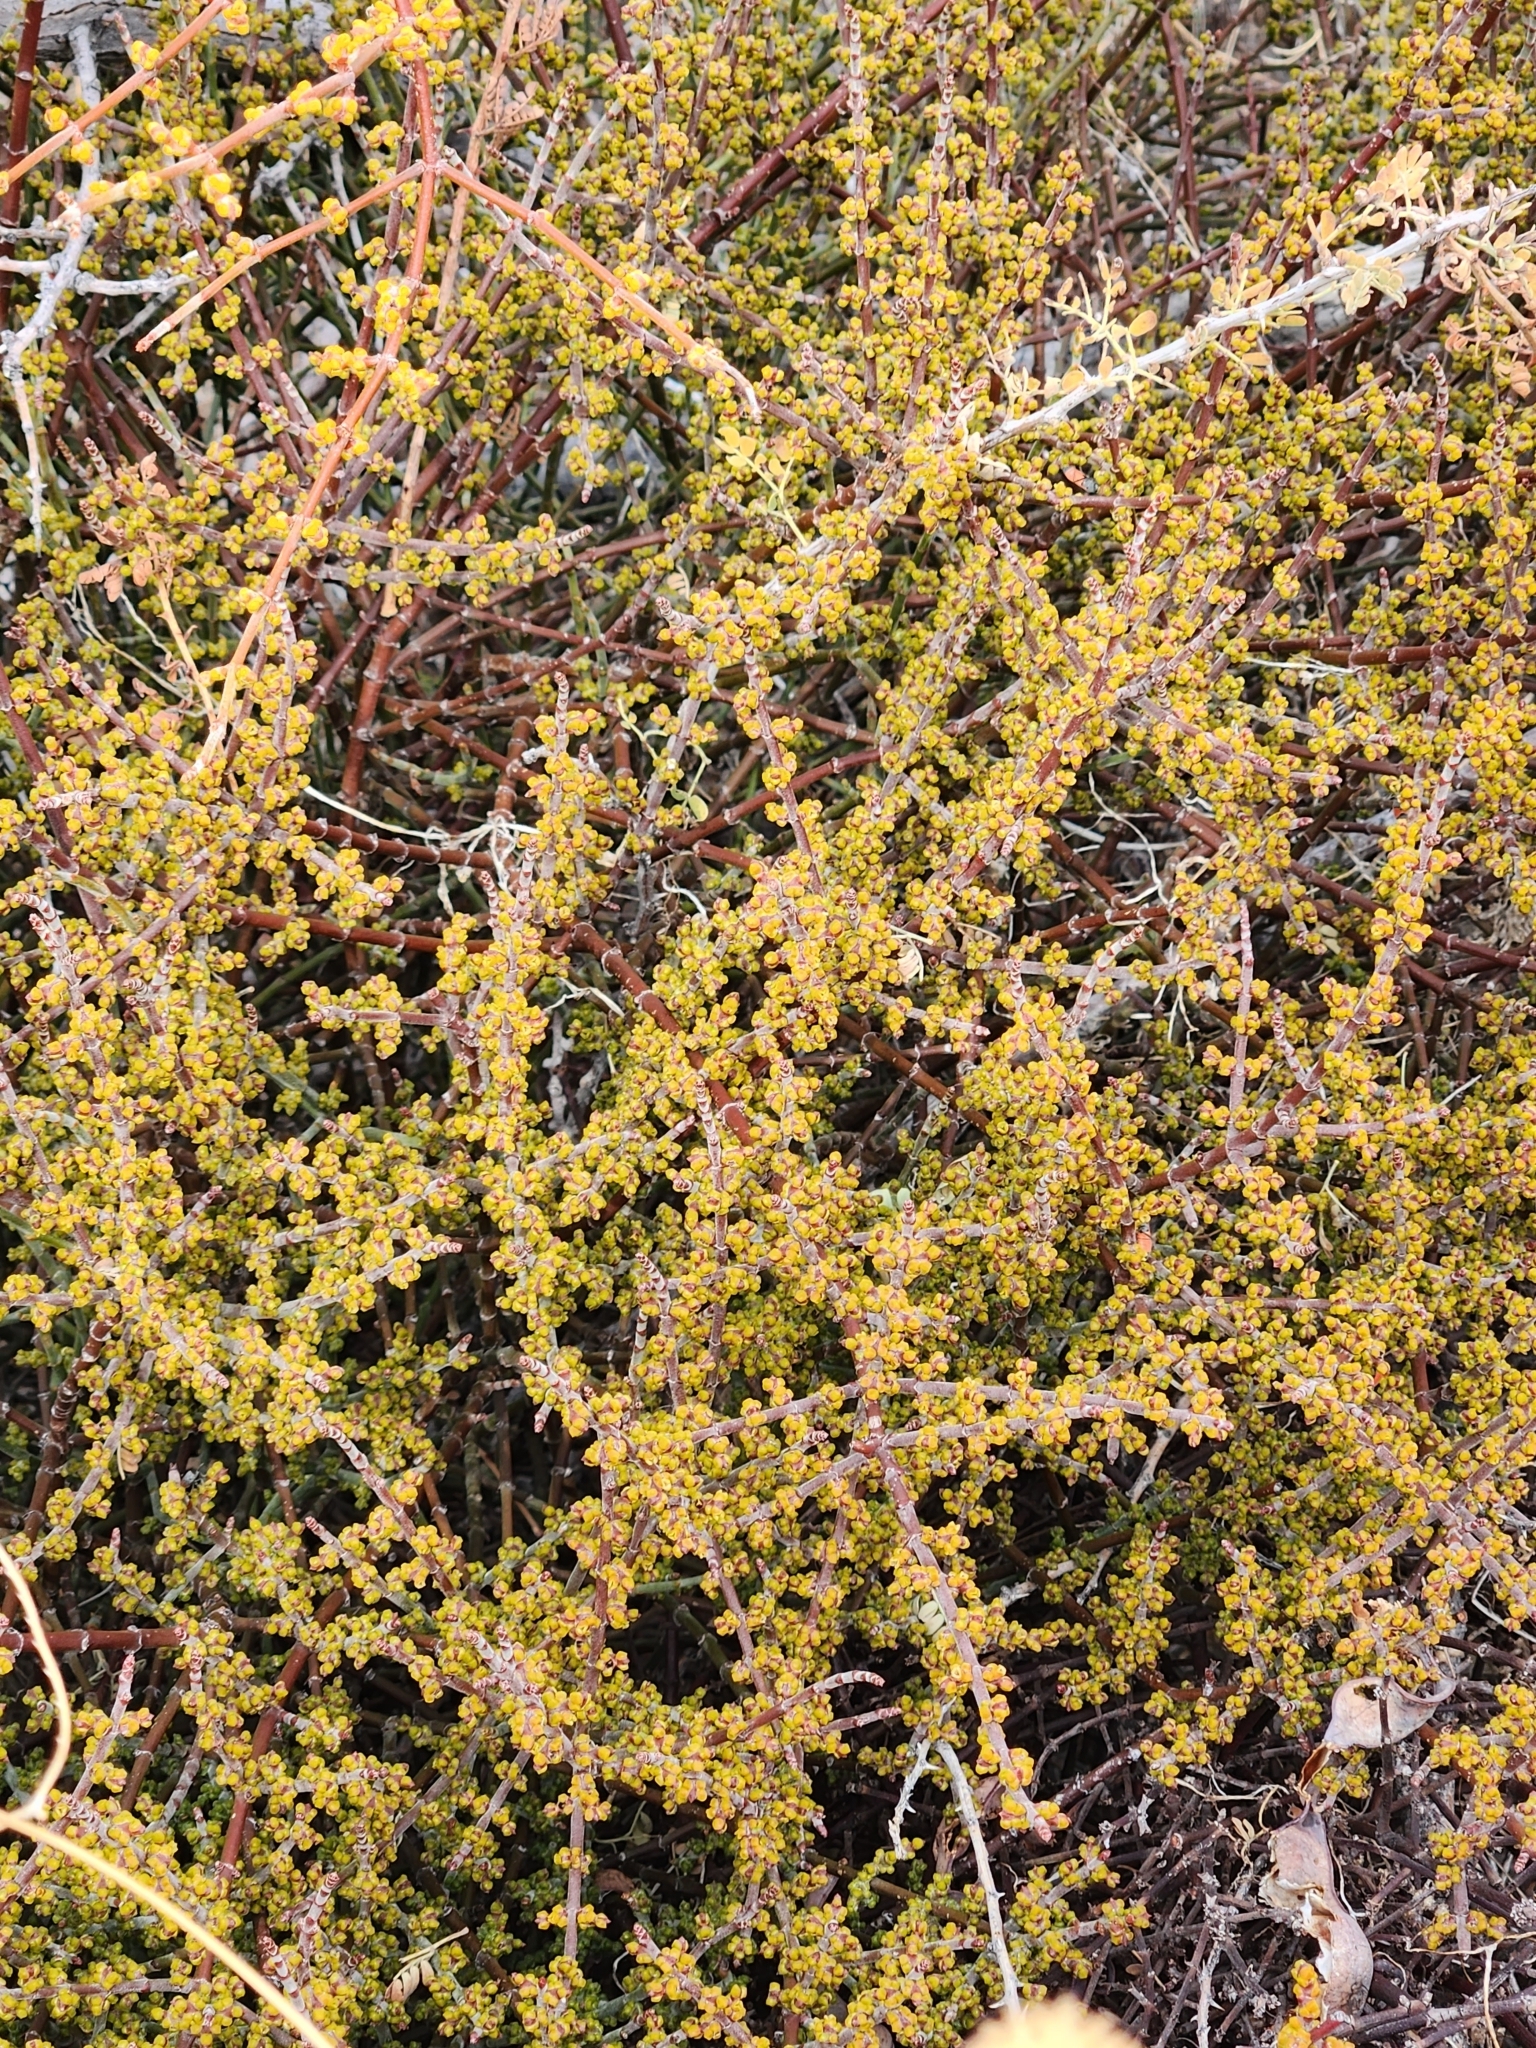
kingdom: Plantae
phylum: Tracheophyta
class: Magnoliopsida
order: Santalales
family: Viscaceae
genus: Phoradendron
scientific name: Phoradendron californicum
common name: Acacia mistletoe
